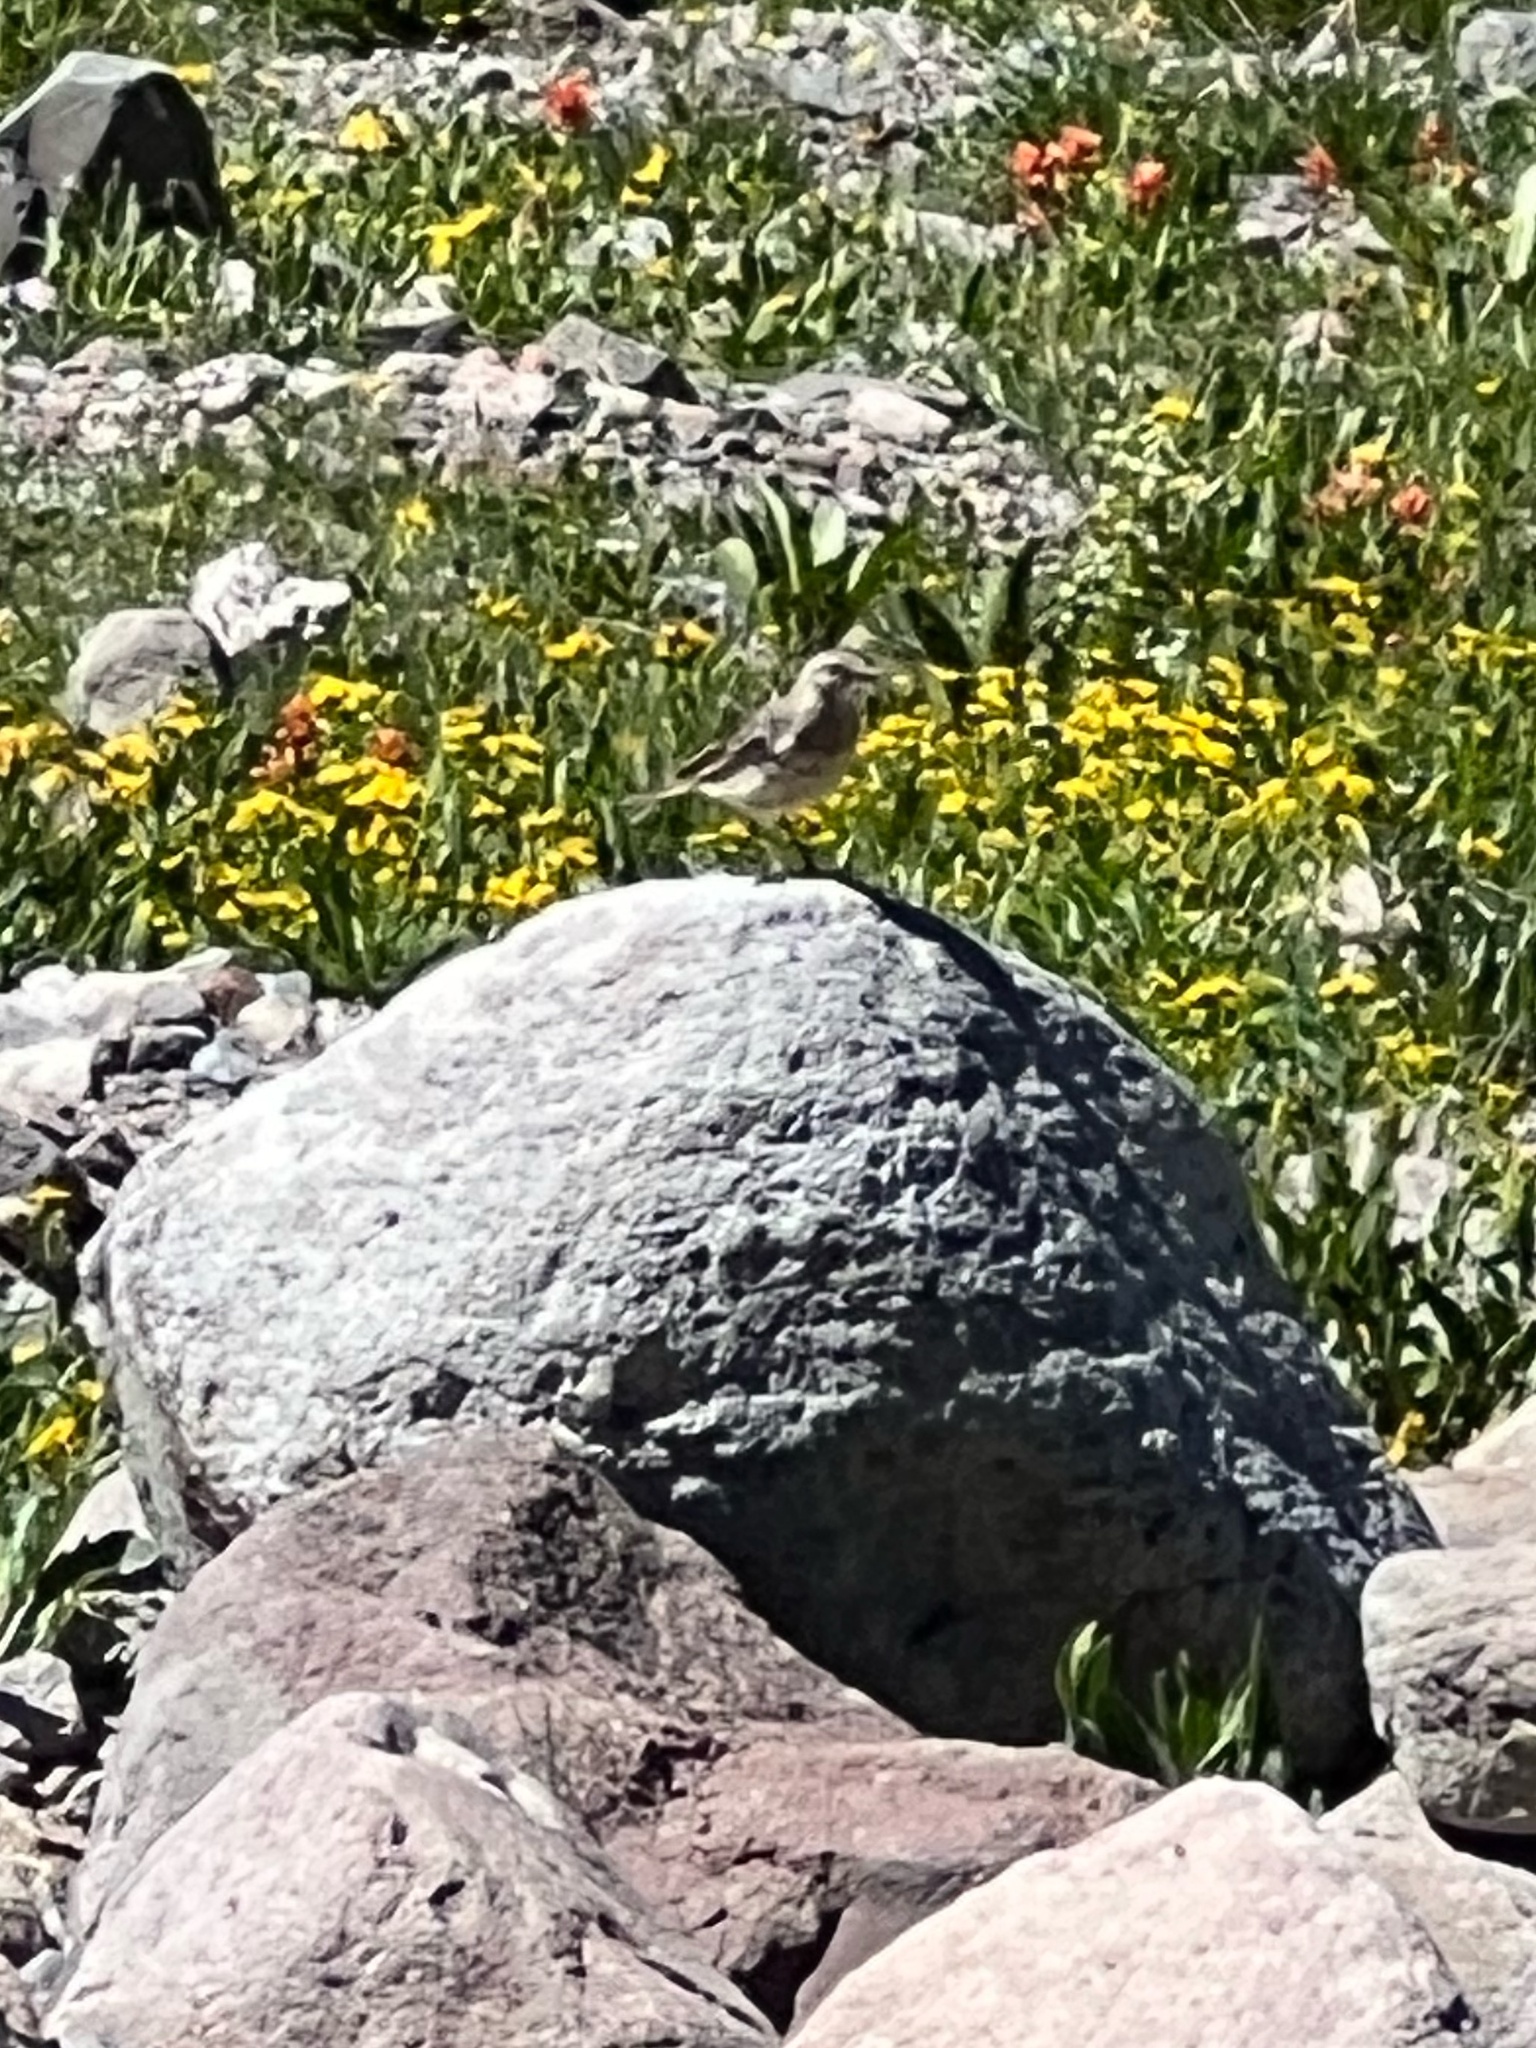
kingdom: Animalia
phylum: Chordata
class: Aves
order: Passeriformes
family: Motacillidae
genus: Anthus
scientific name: Anthus rubescens
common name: Buff-bellied pipit
